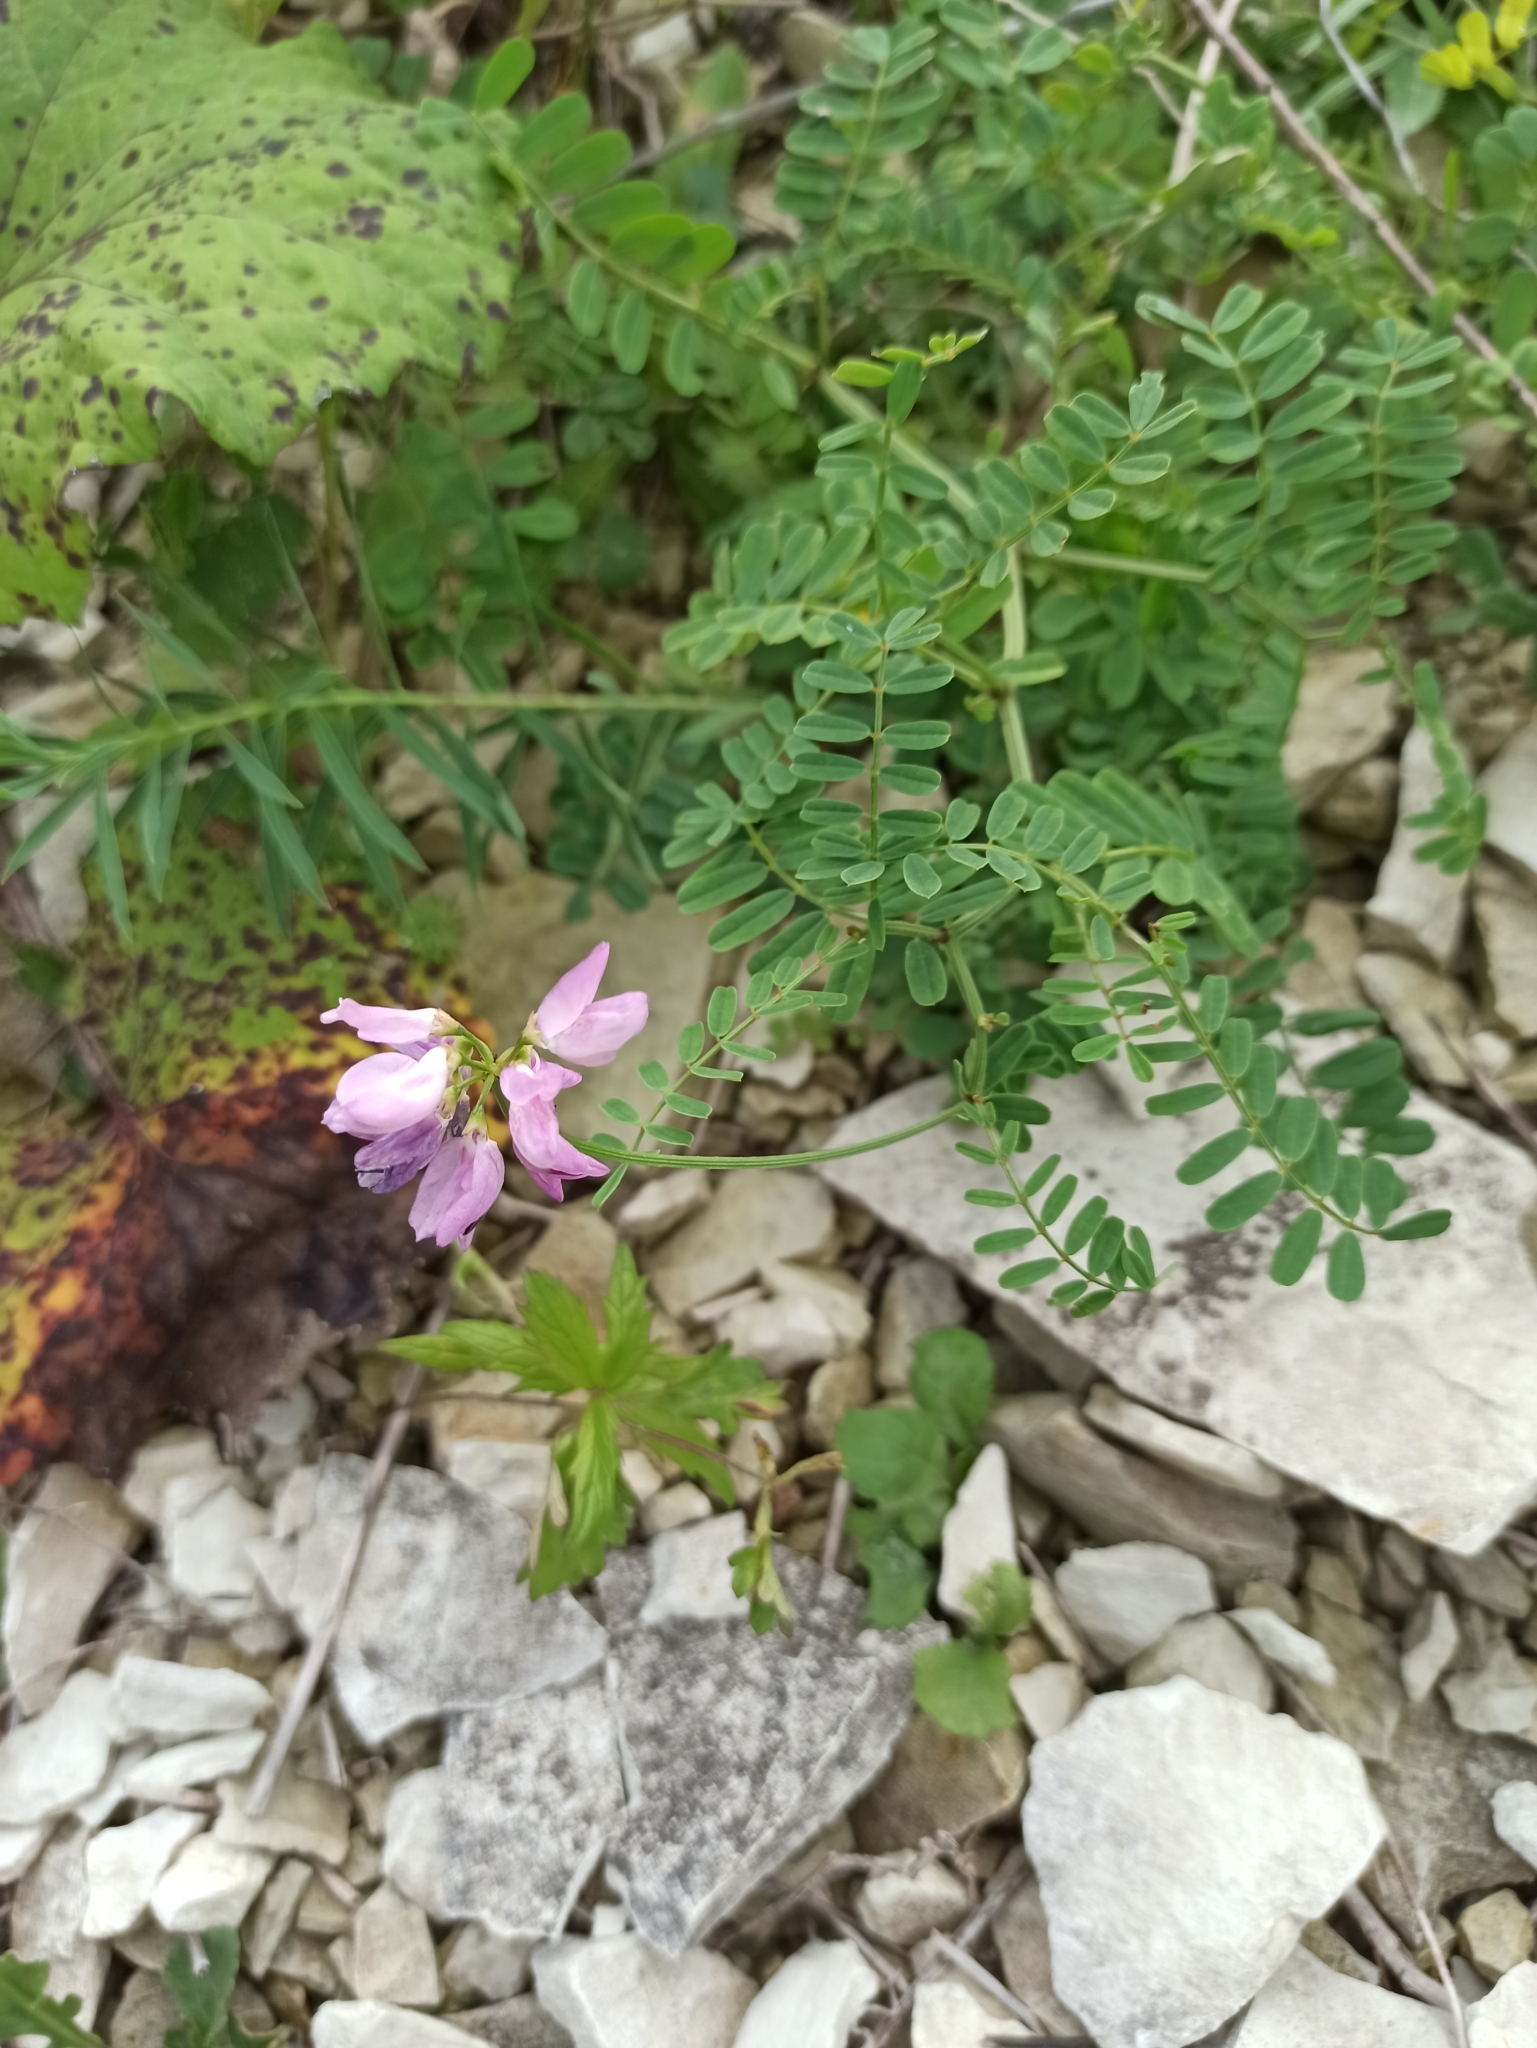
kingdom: Plantae
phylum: Tracheophyta
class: Magnoliopsida
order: Fabales
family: Fabaceae
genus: Coronilla
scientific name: Coronilla varia
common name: Crownvetch
